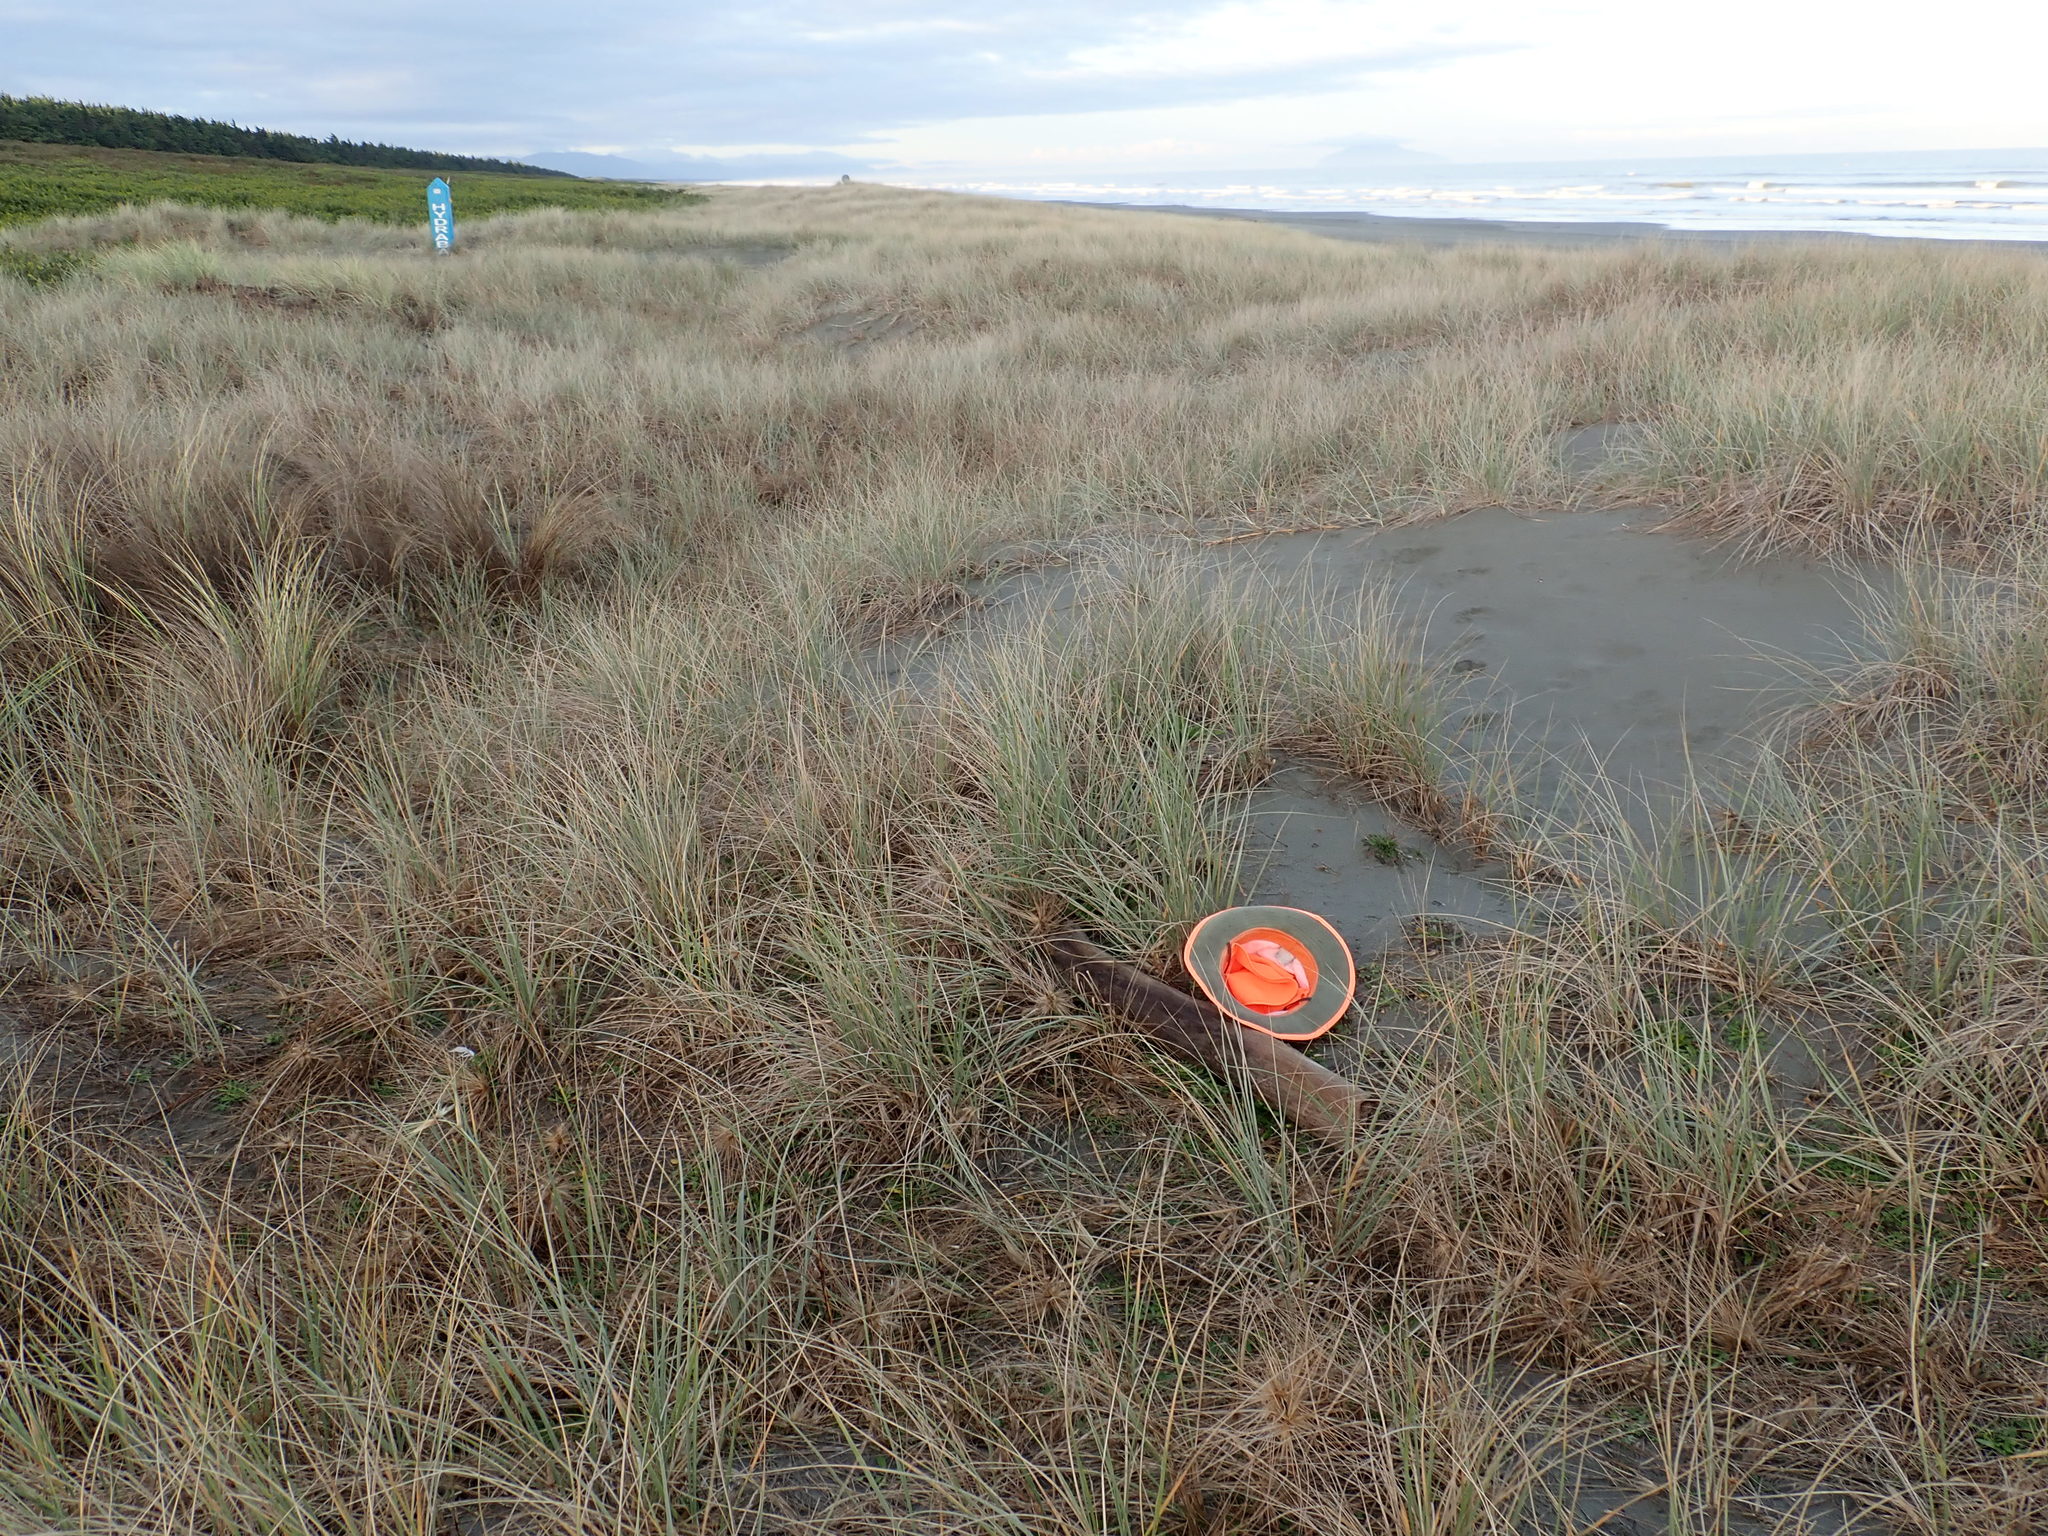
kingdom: Animalia
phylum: Arthropoda
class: Arachnida
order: Araneae
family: Theridiidae
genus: Steatoda
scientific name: Steatoda capensis
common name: Cobweb weaver
